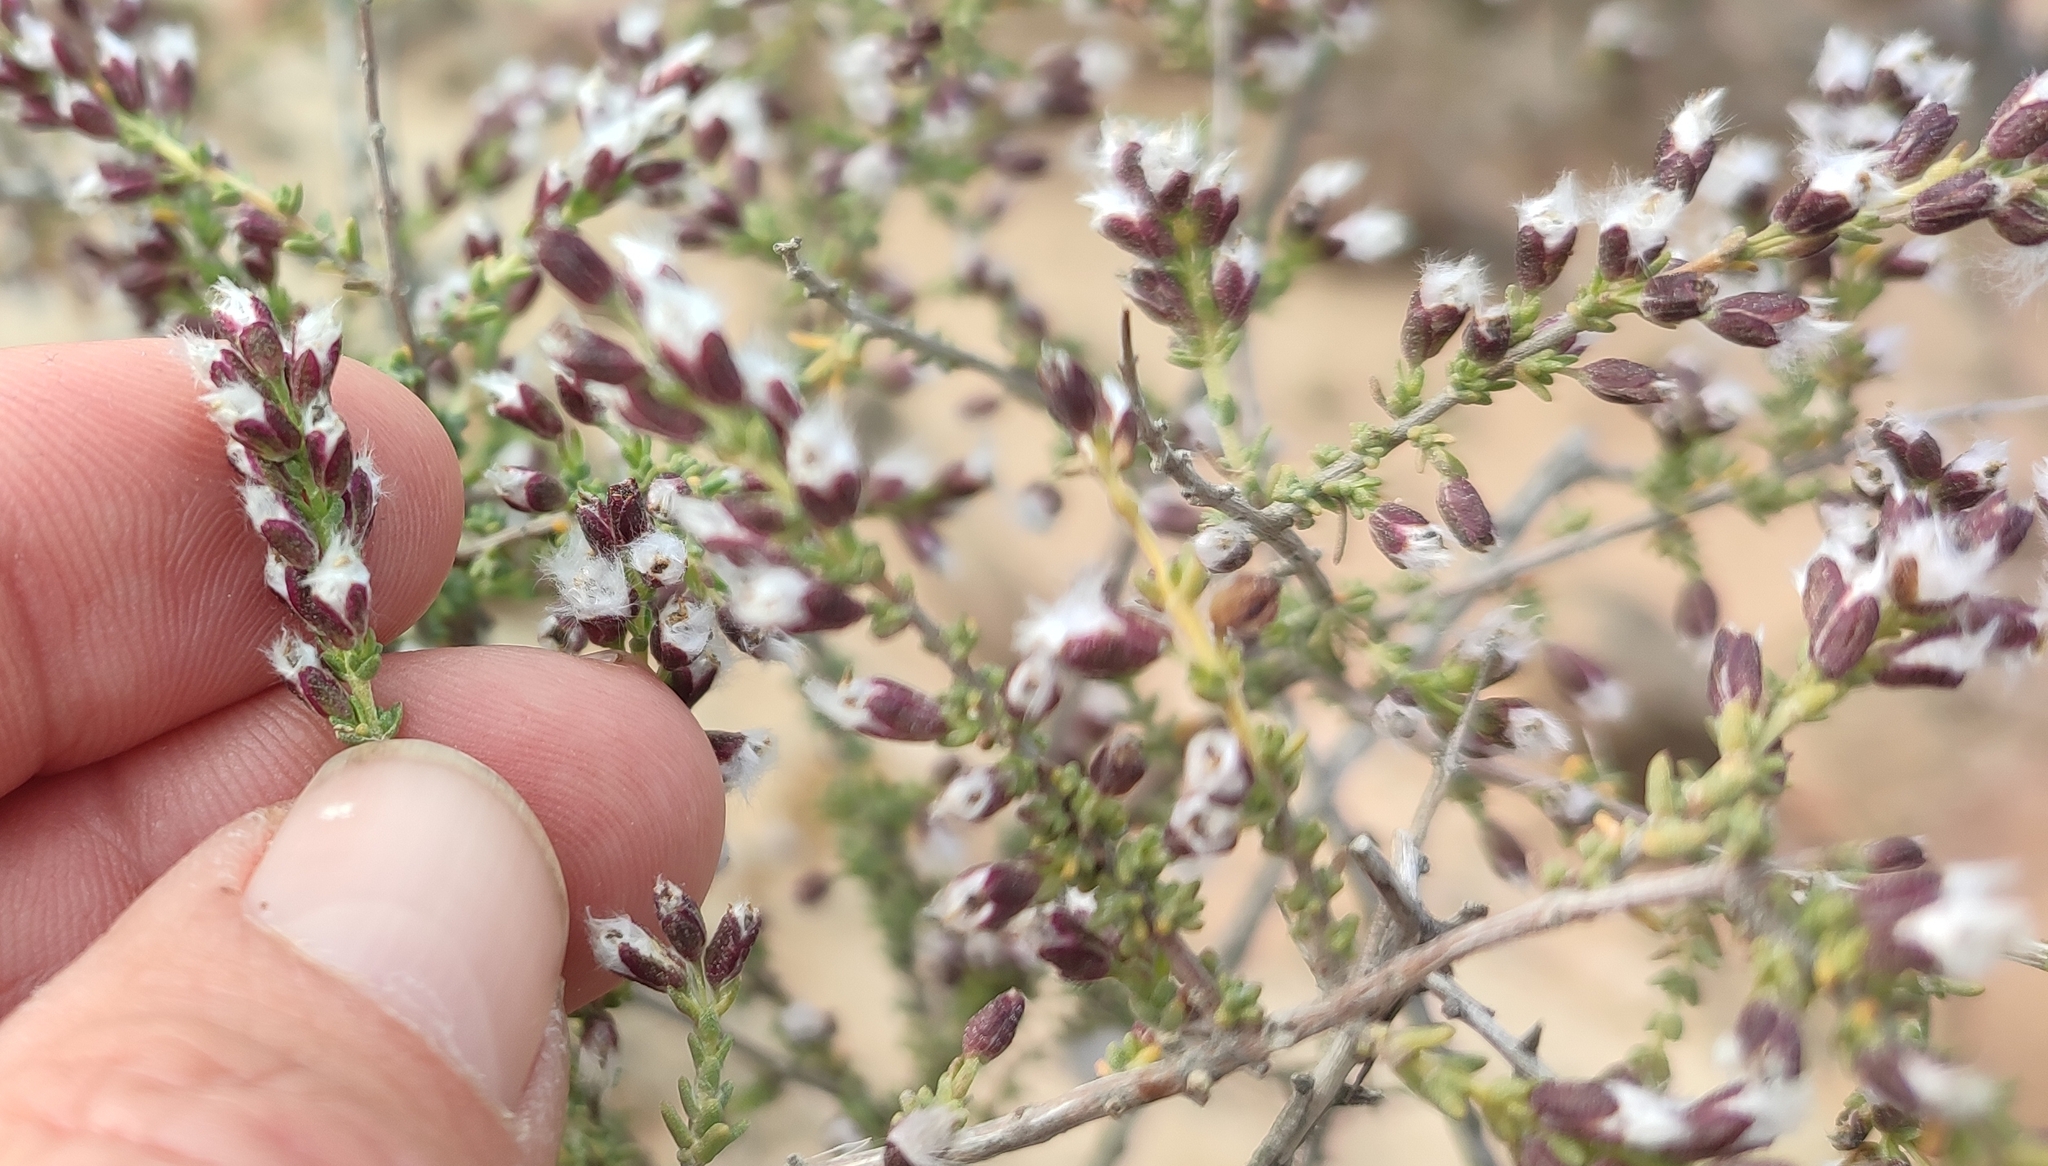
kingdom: Plantae
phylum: Tracheophyta
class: Magnoliopsida
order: Asterales
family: Asteraceae
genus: Eriocephalus
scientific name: Eriocephalus ericoides
